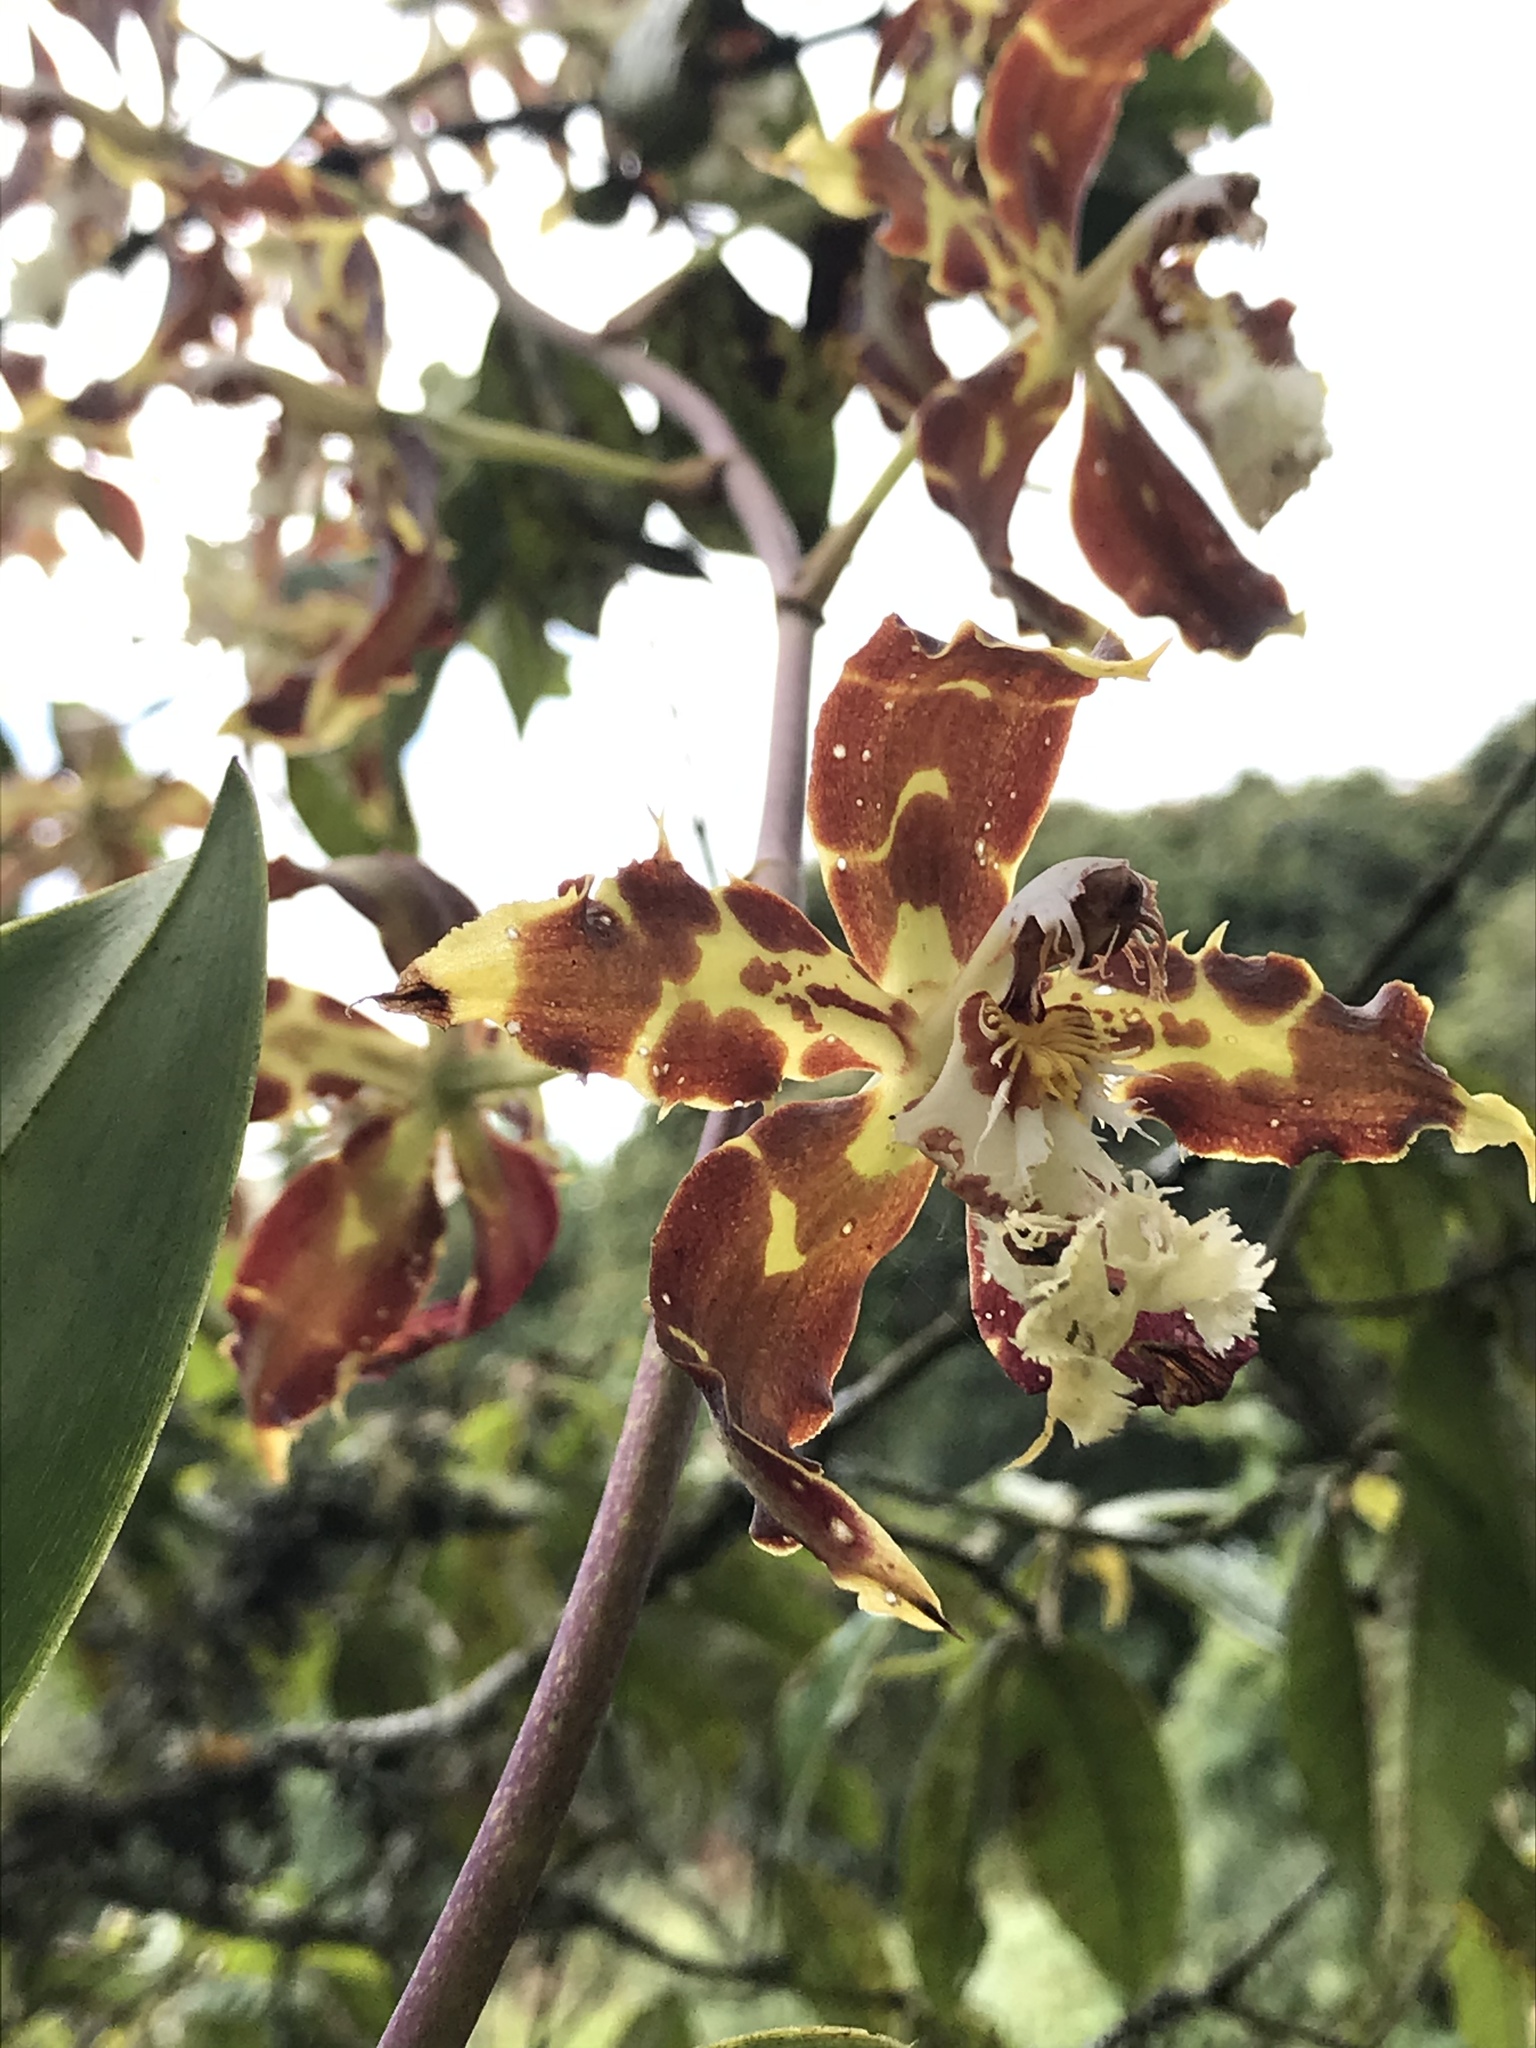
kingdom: Plantae
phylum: Tracheophyta
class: Liliopsida
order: Asparagales
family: Orchidaceae
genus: Oncidium
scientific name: Oncidium luteopurpureum
